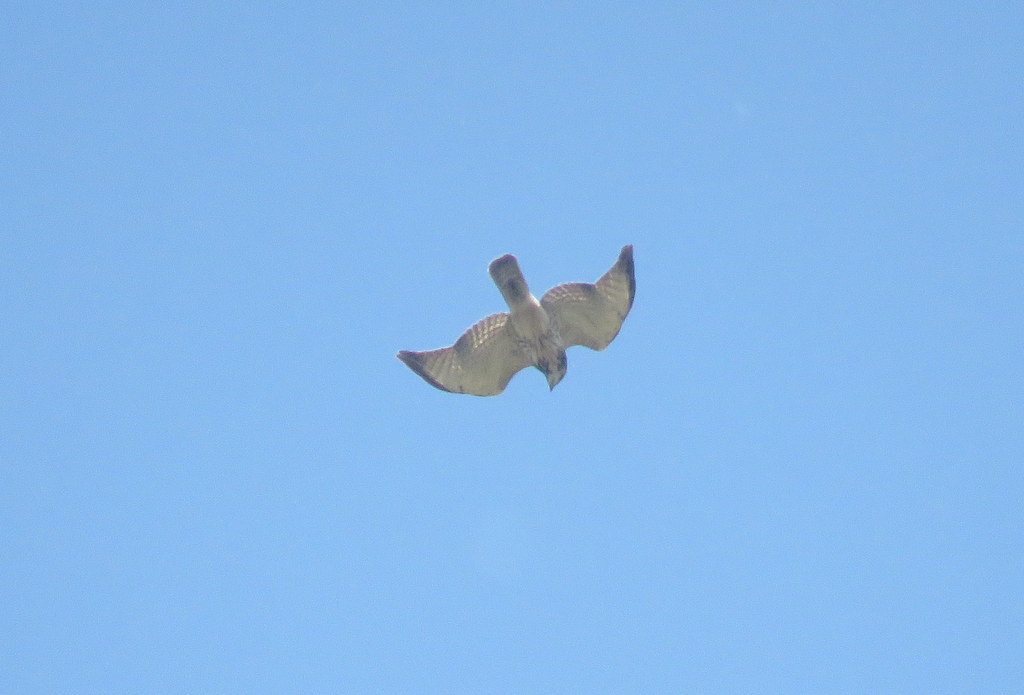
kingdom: Animalia
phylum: Chordata
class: Aves
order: Accipitriformes
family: Accipitridae
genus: Buteo
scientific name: Buteo swainsoni
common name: Swainson's hawk
